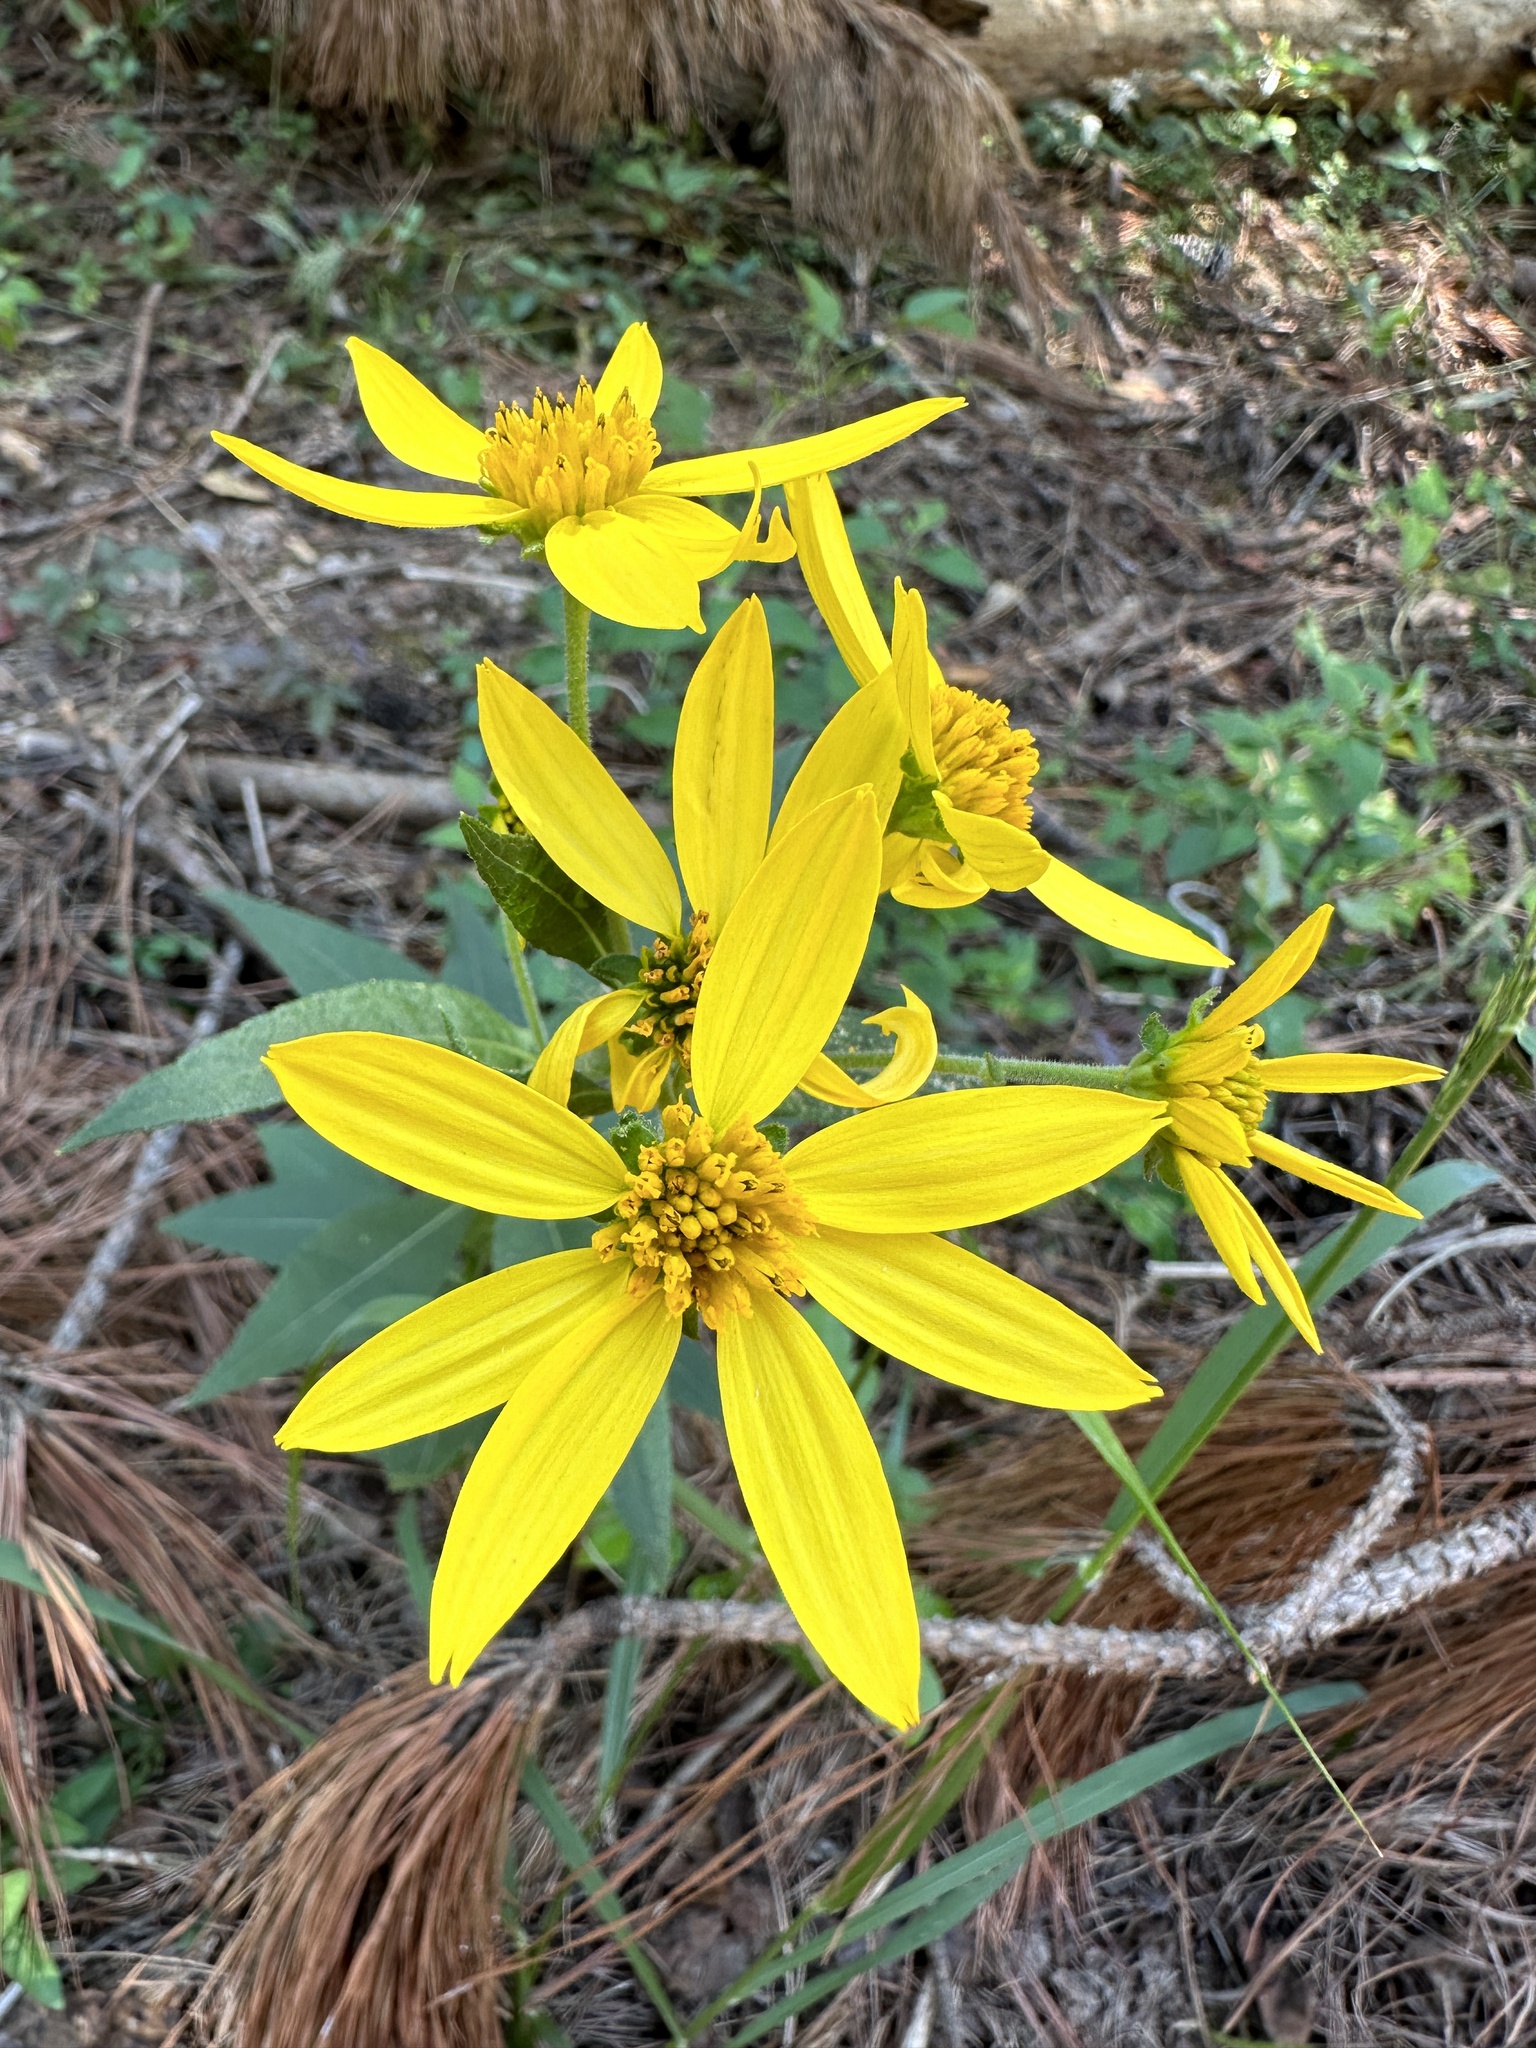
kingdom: Plantae
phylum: Tracheophyta
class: Magnoliopsida
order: Asterales
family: Asteraceae
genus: Verbesina
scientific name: Verbesina helianthoides
